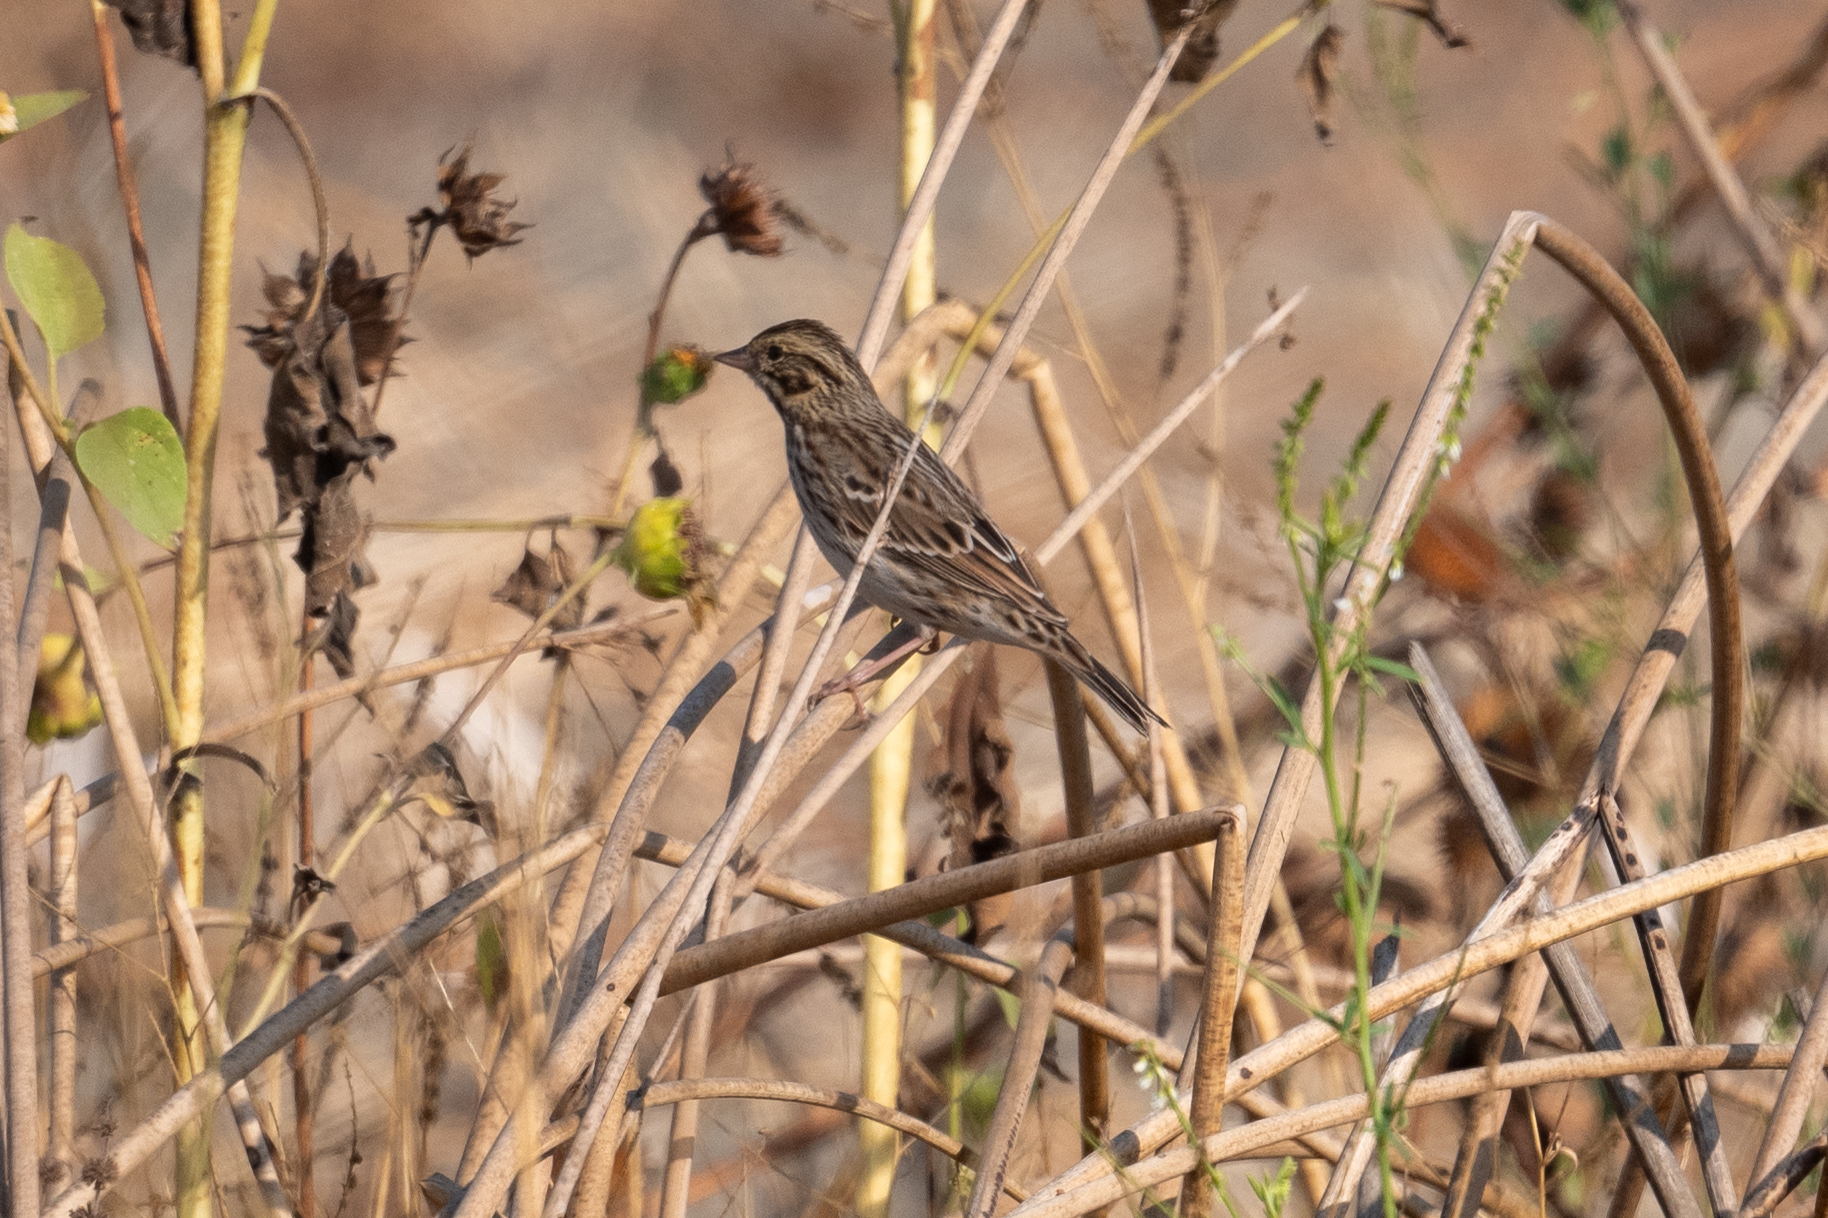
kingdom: Animalia
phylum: Chordata
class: Aves
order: Passeriformes
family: Passerellidae
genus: Passerculus
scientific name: Passerculus sandwichensis
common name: Savannah sparrow
